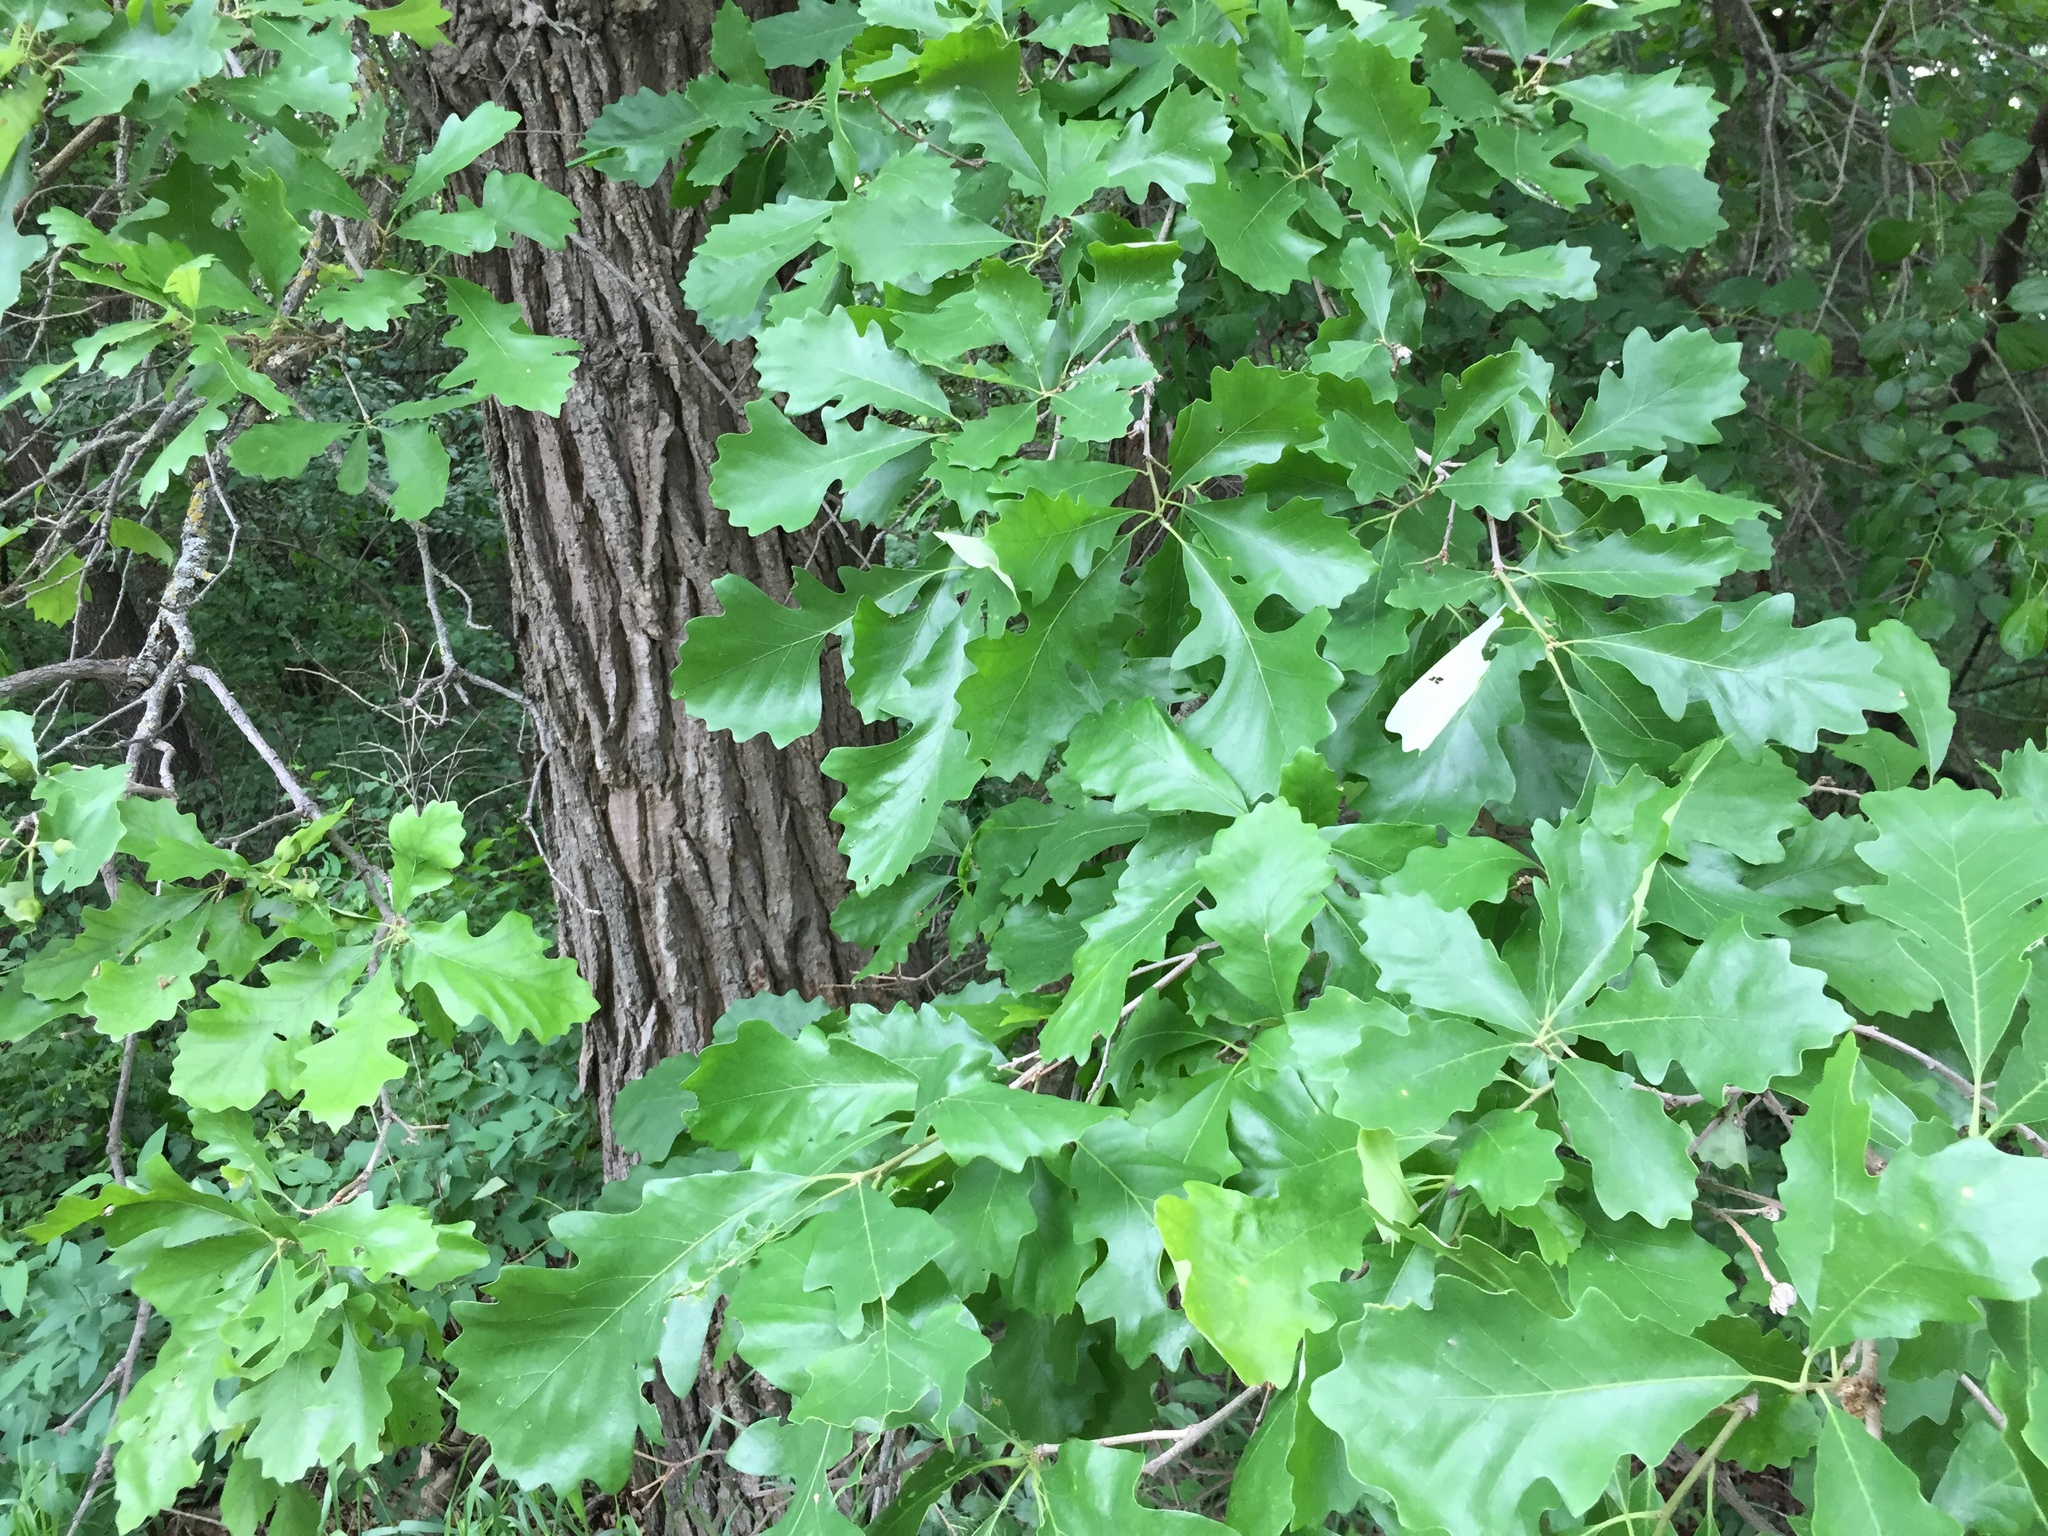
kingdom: Plantae
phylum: Tracheophyta
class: Magnoliopsida
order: Fagales
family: Fagaceae
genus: Quercus
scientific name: Quercus macrocarpa
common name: Bur oak
